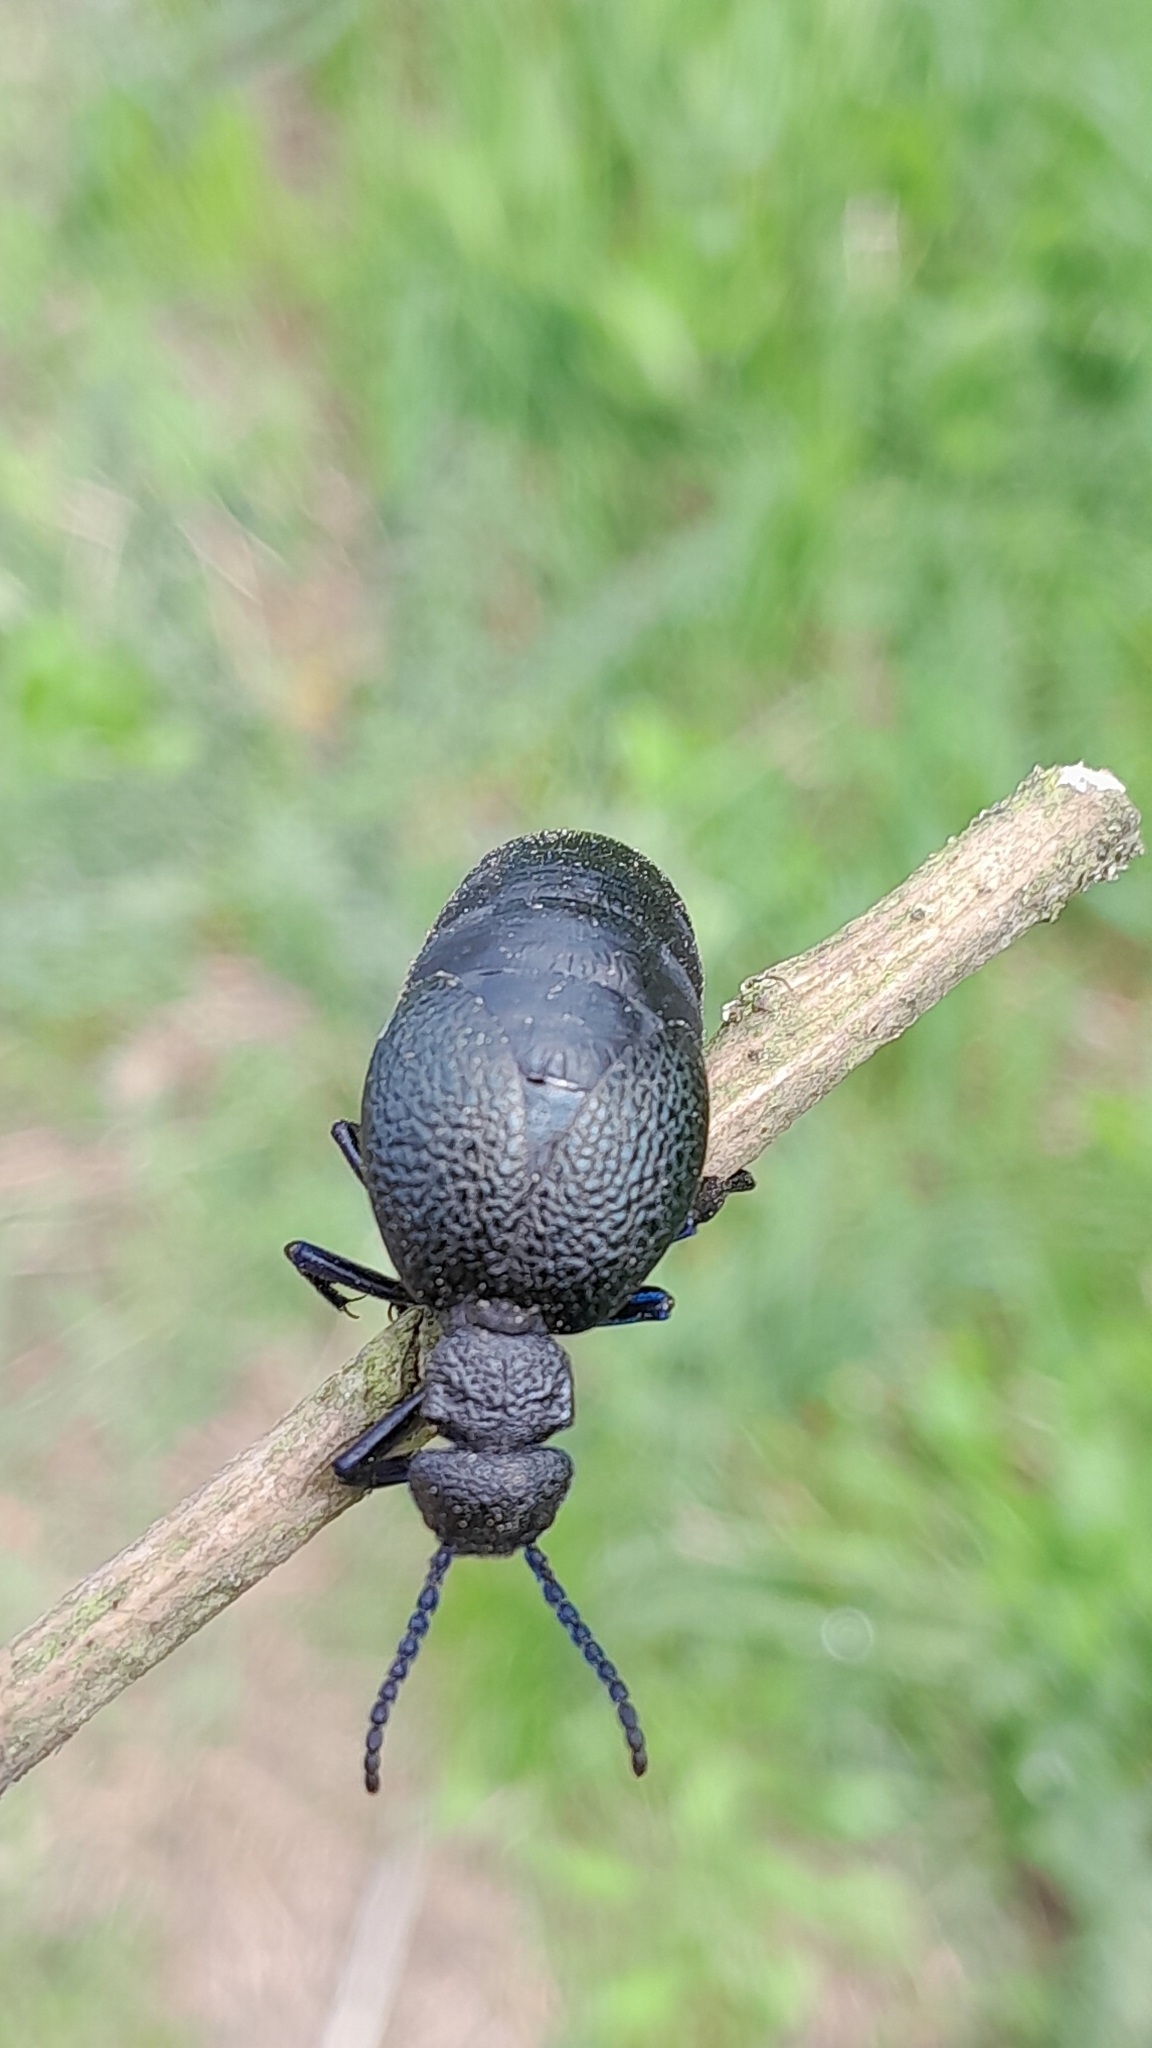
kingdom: Animalia
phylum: Arthropoda
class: Insecta
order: Coleoptera
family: Meloidae
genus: Meloe
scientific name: Meloe cicatricosus
